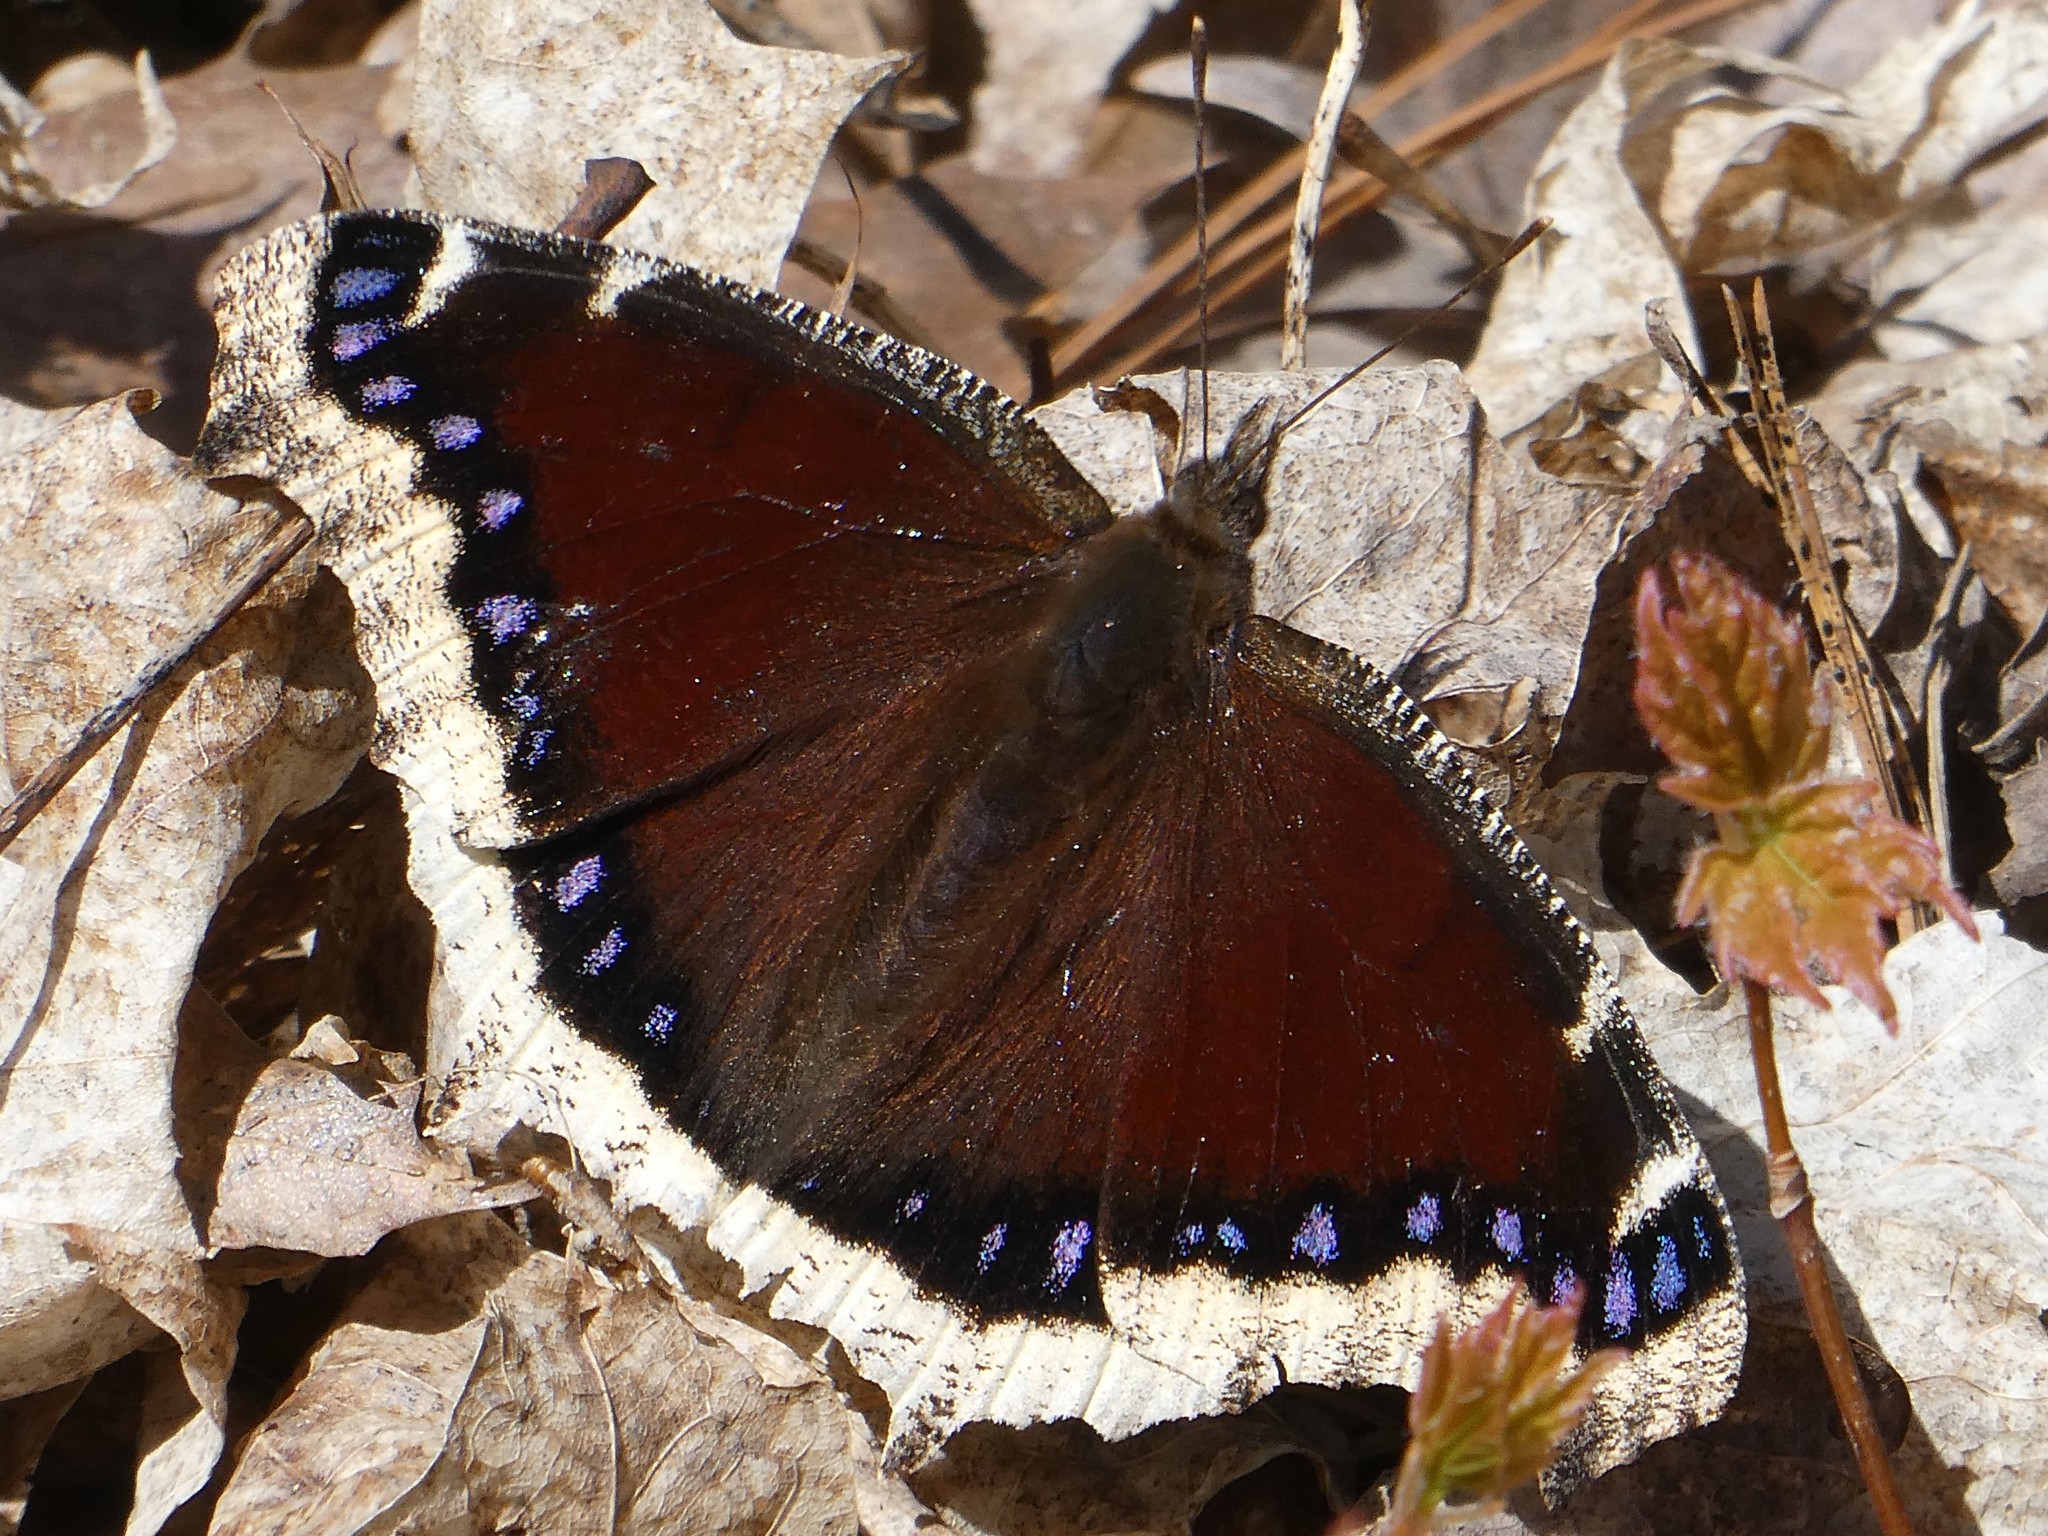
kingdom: Animalia
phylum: Arthropoda
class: Insecta
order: Lepidoptera
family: Nymphalidae
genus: Nymphalis
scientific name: Nymphalis antiopa
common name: Camberwell beauty
